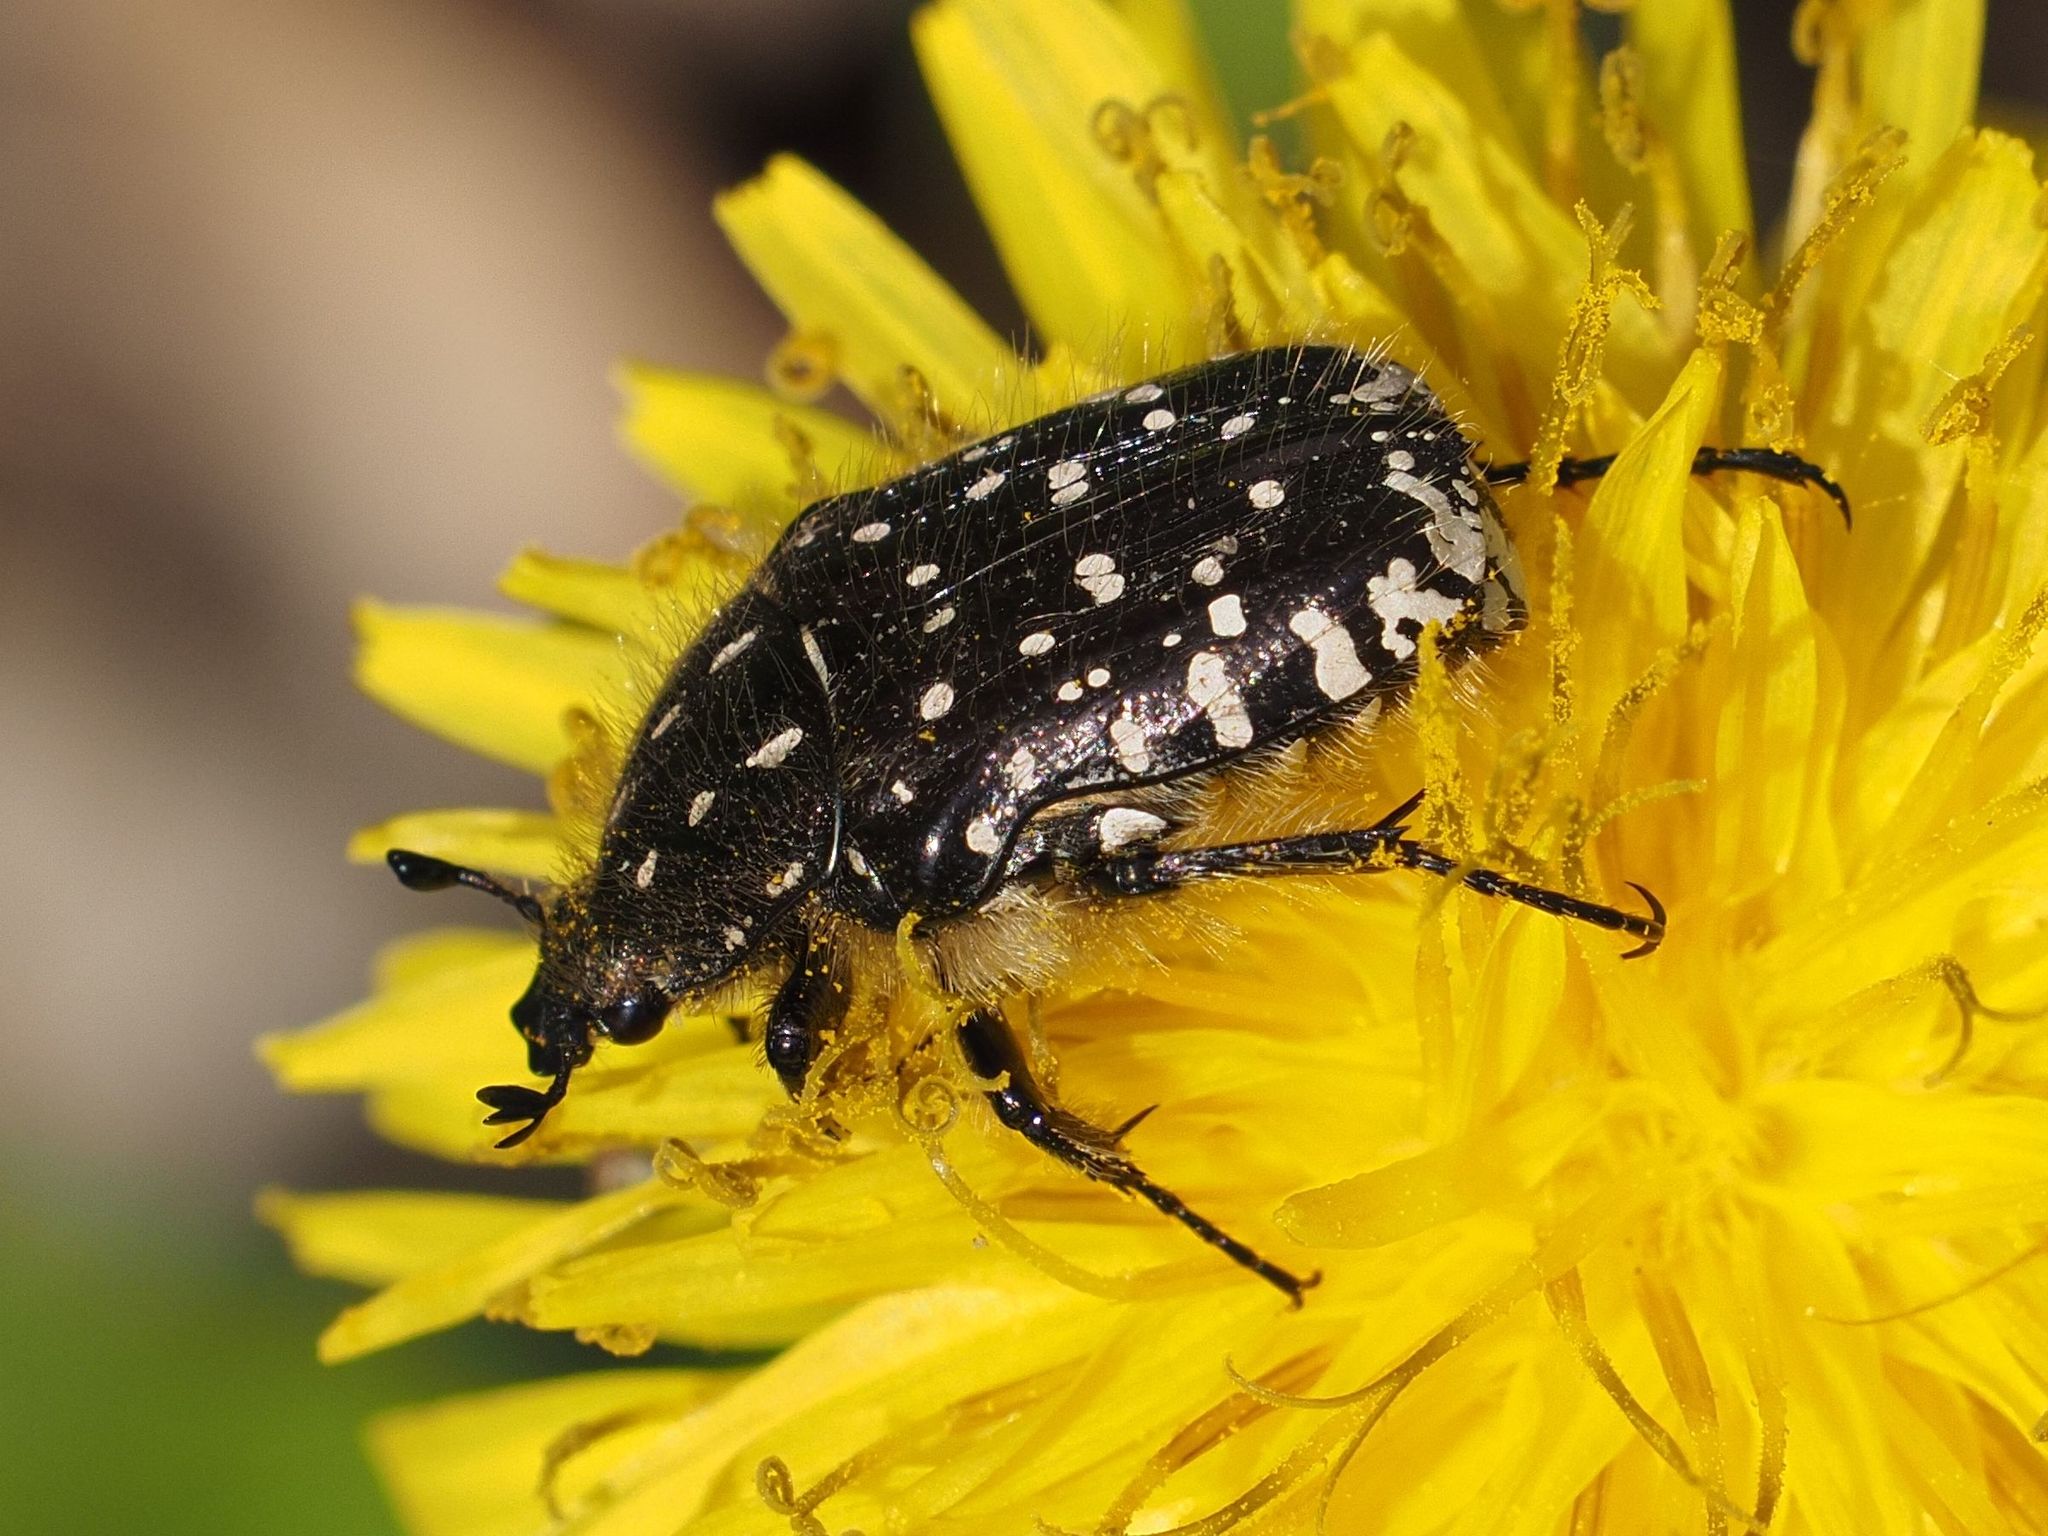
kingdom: Animalia
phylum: Arthropoda
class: Insecta
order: Coleoptera
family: Scarabaeidae
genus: Oxythyrea
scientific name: Oxythyrea funesta
